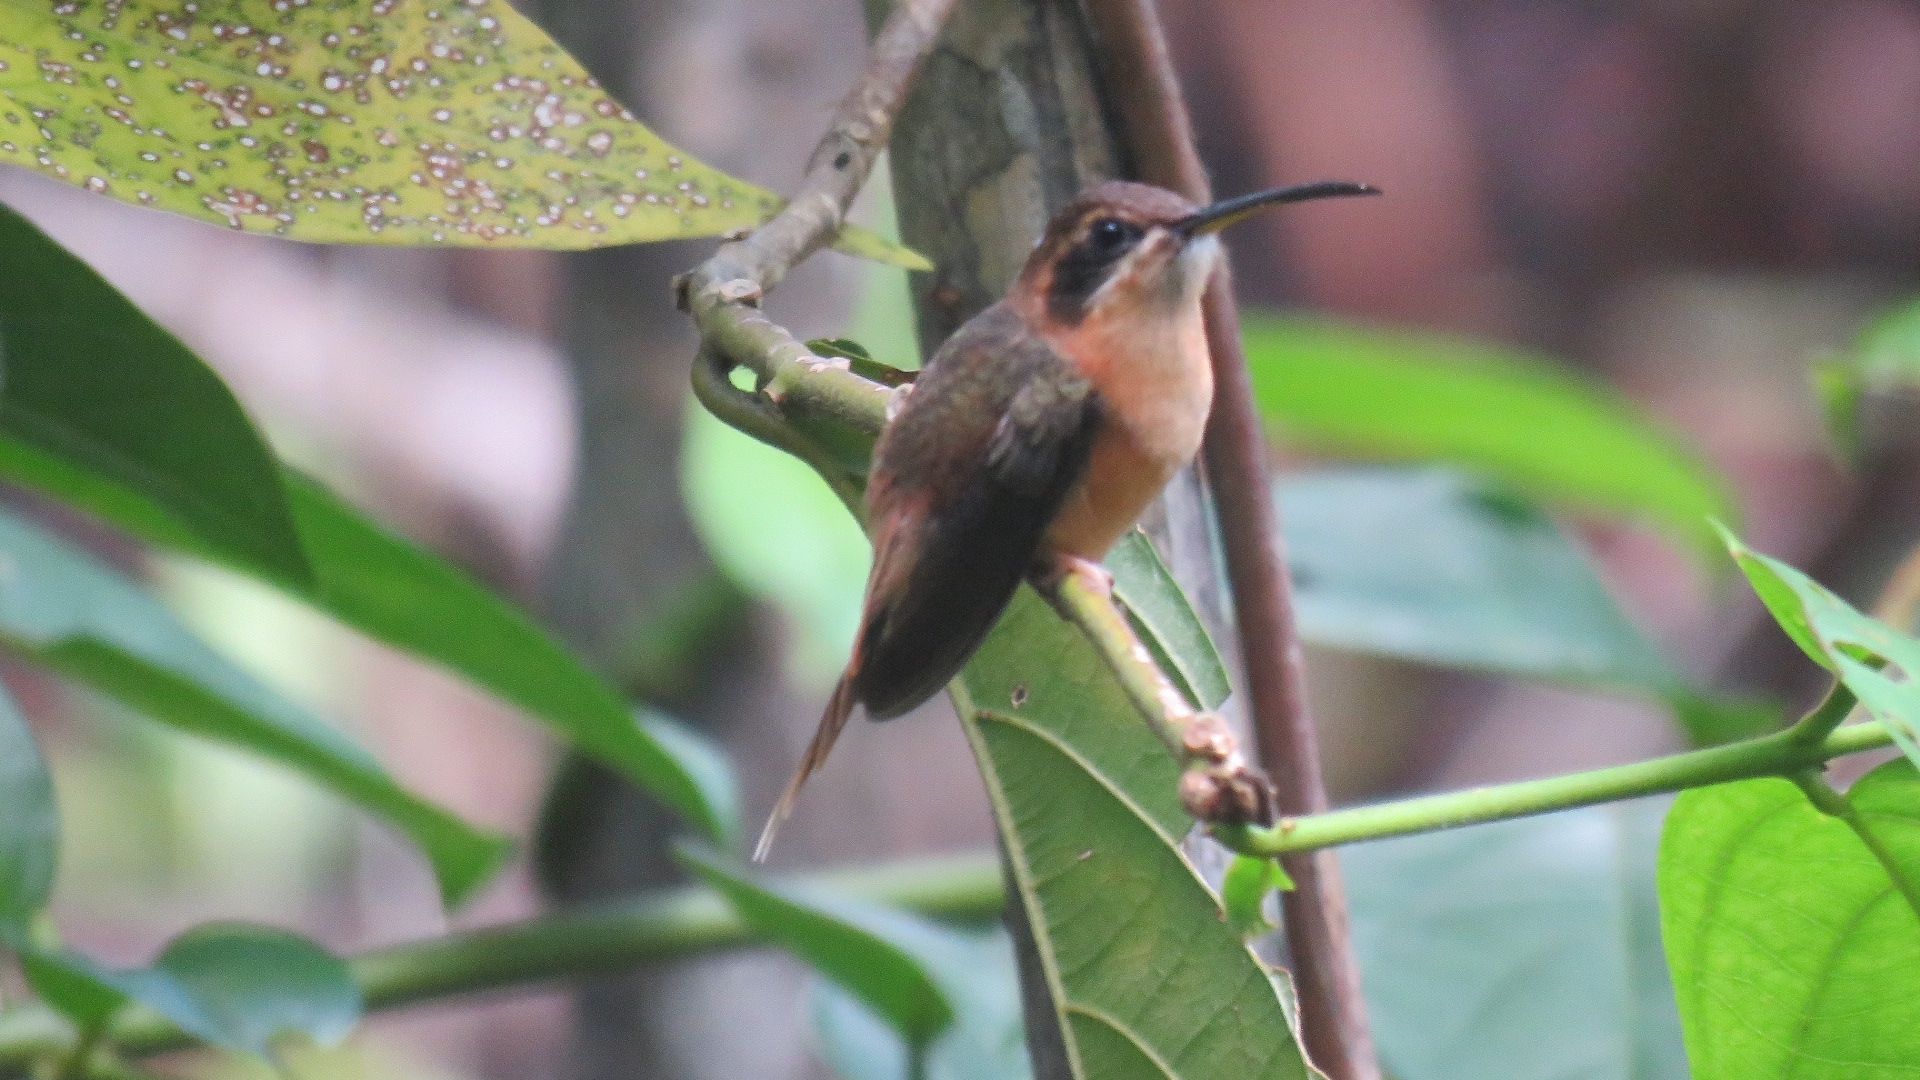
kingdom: Animalia
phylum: Chordata
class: Aves
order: Apodiformes
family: Trochilidae
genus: Phaethornis
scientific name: Phaethornis striigularis
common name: Stripe-throated hermit
